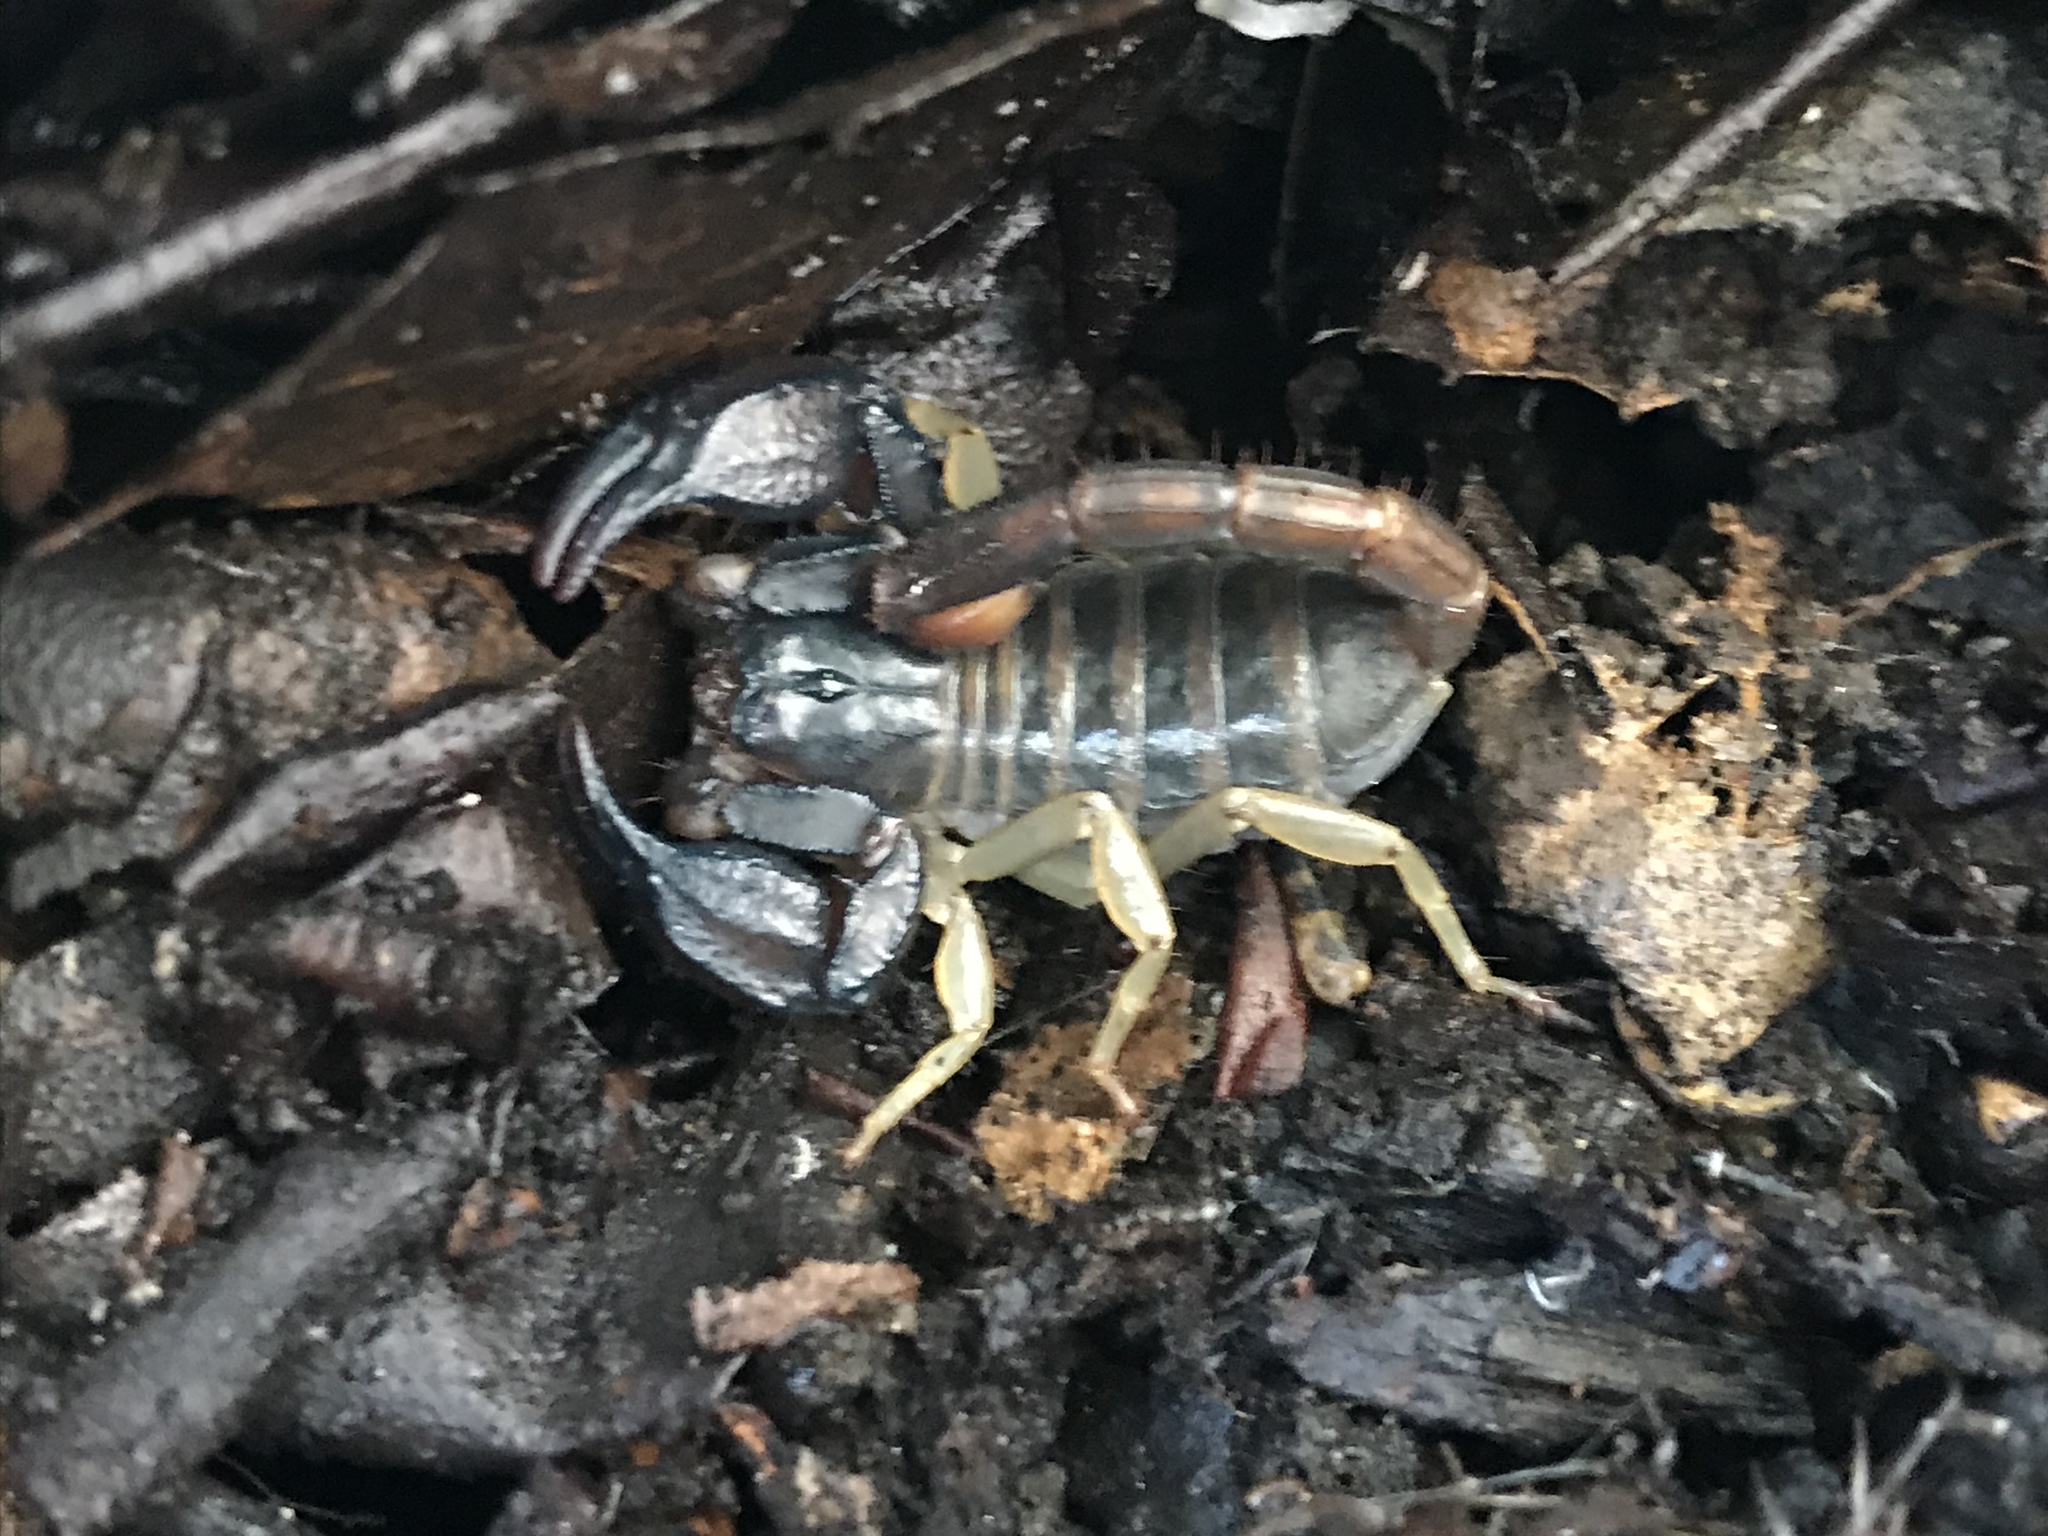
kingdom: Animalia
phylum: Arthropoda
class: Arachnida
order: Scorpiones
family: Chactidae
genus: Uroctonus
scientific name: Uroctonus mordax
